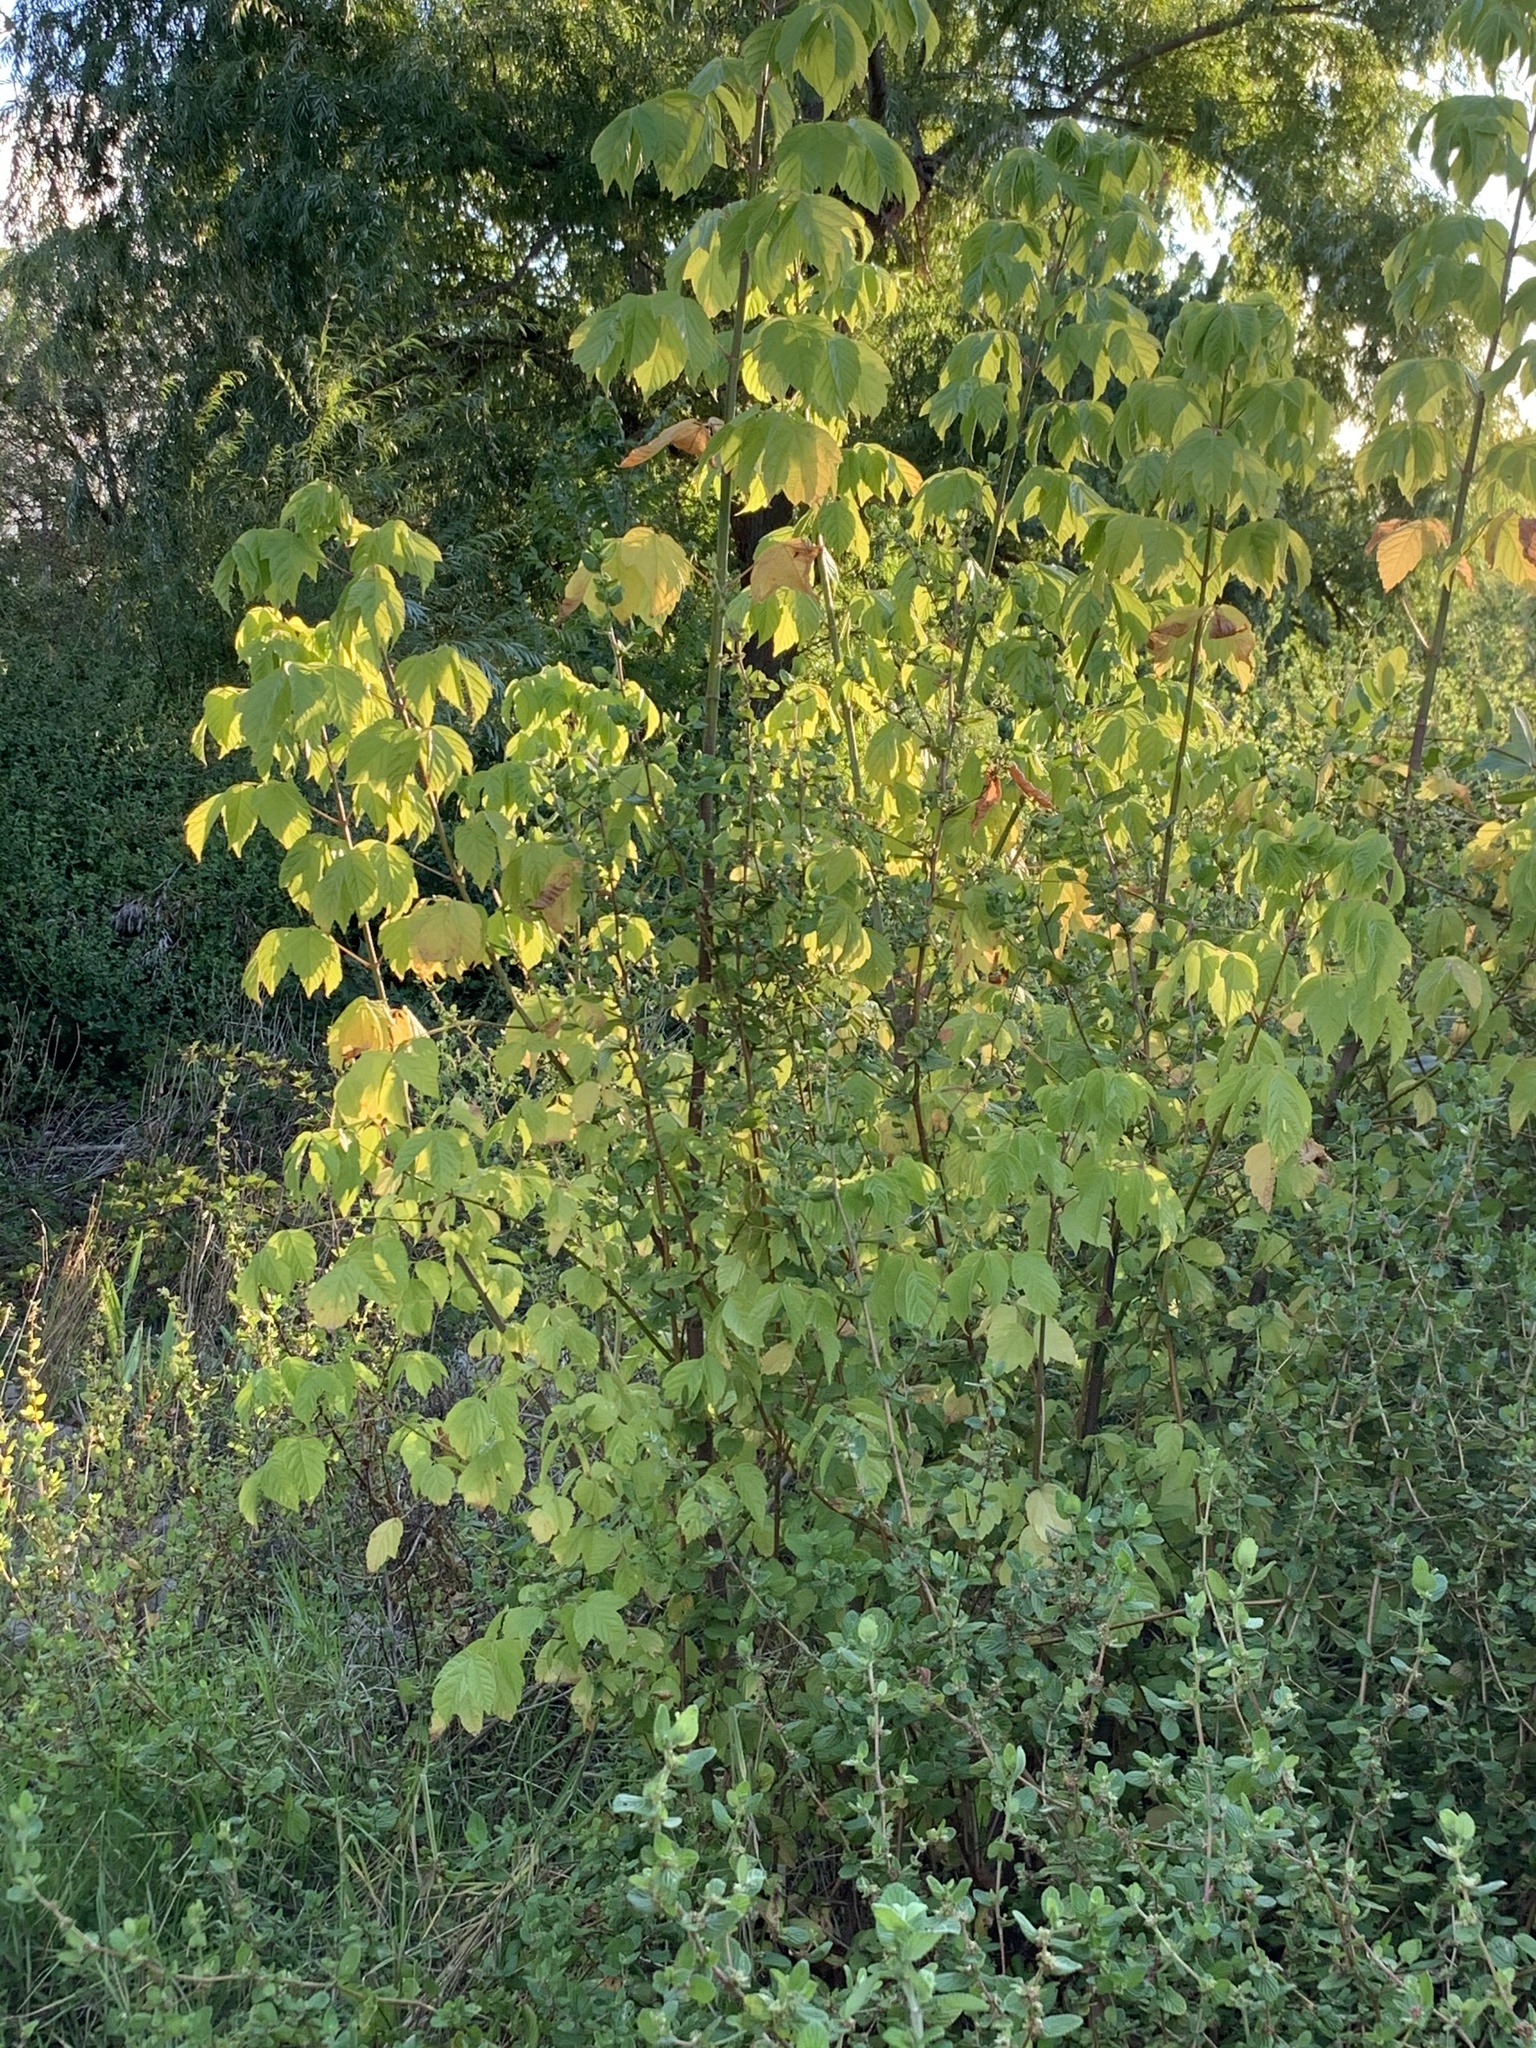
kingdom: Plantae
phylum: Tracheophyta
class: Magnoliopsida
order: Sapindales
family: Sapindaceae
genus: Acer
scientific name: Acer negundo
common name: Ashleaf maple
